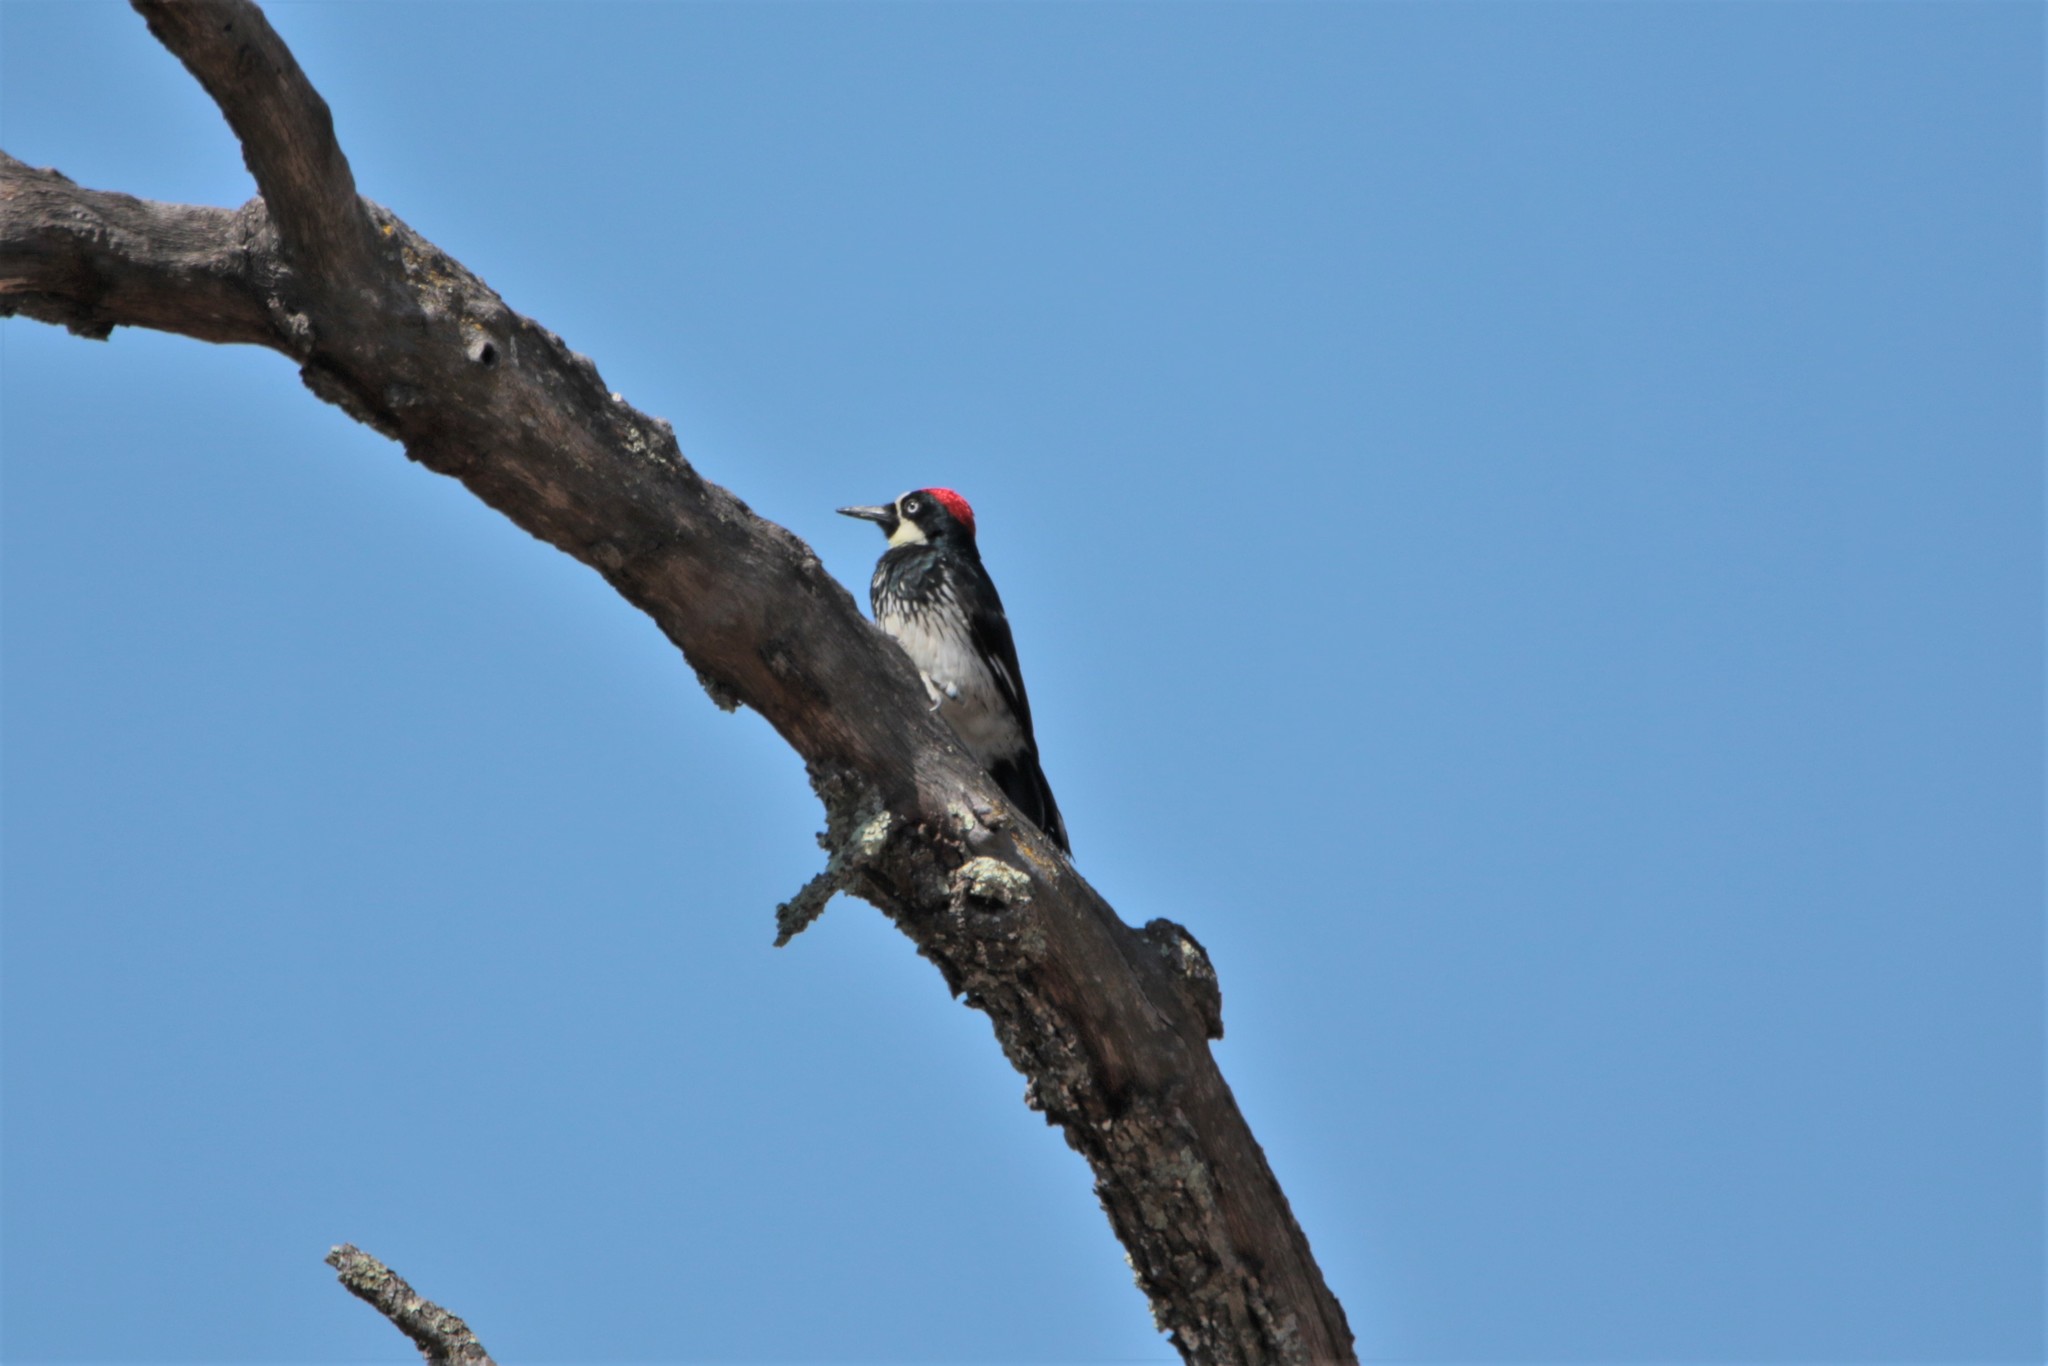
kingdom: Animalia
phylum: Chordata
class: Aves
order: Piciformes
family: Picidae
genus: Melanerpes
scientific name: Melanerpes formicivorus
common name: Acorn woodpecker
